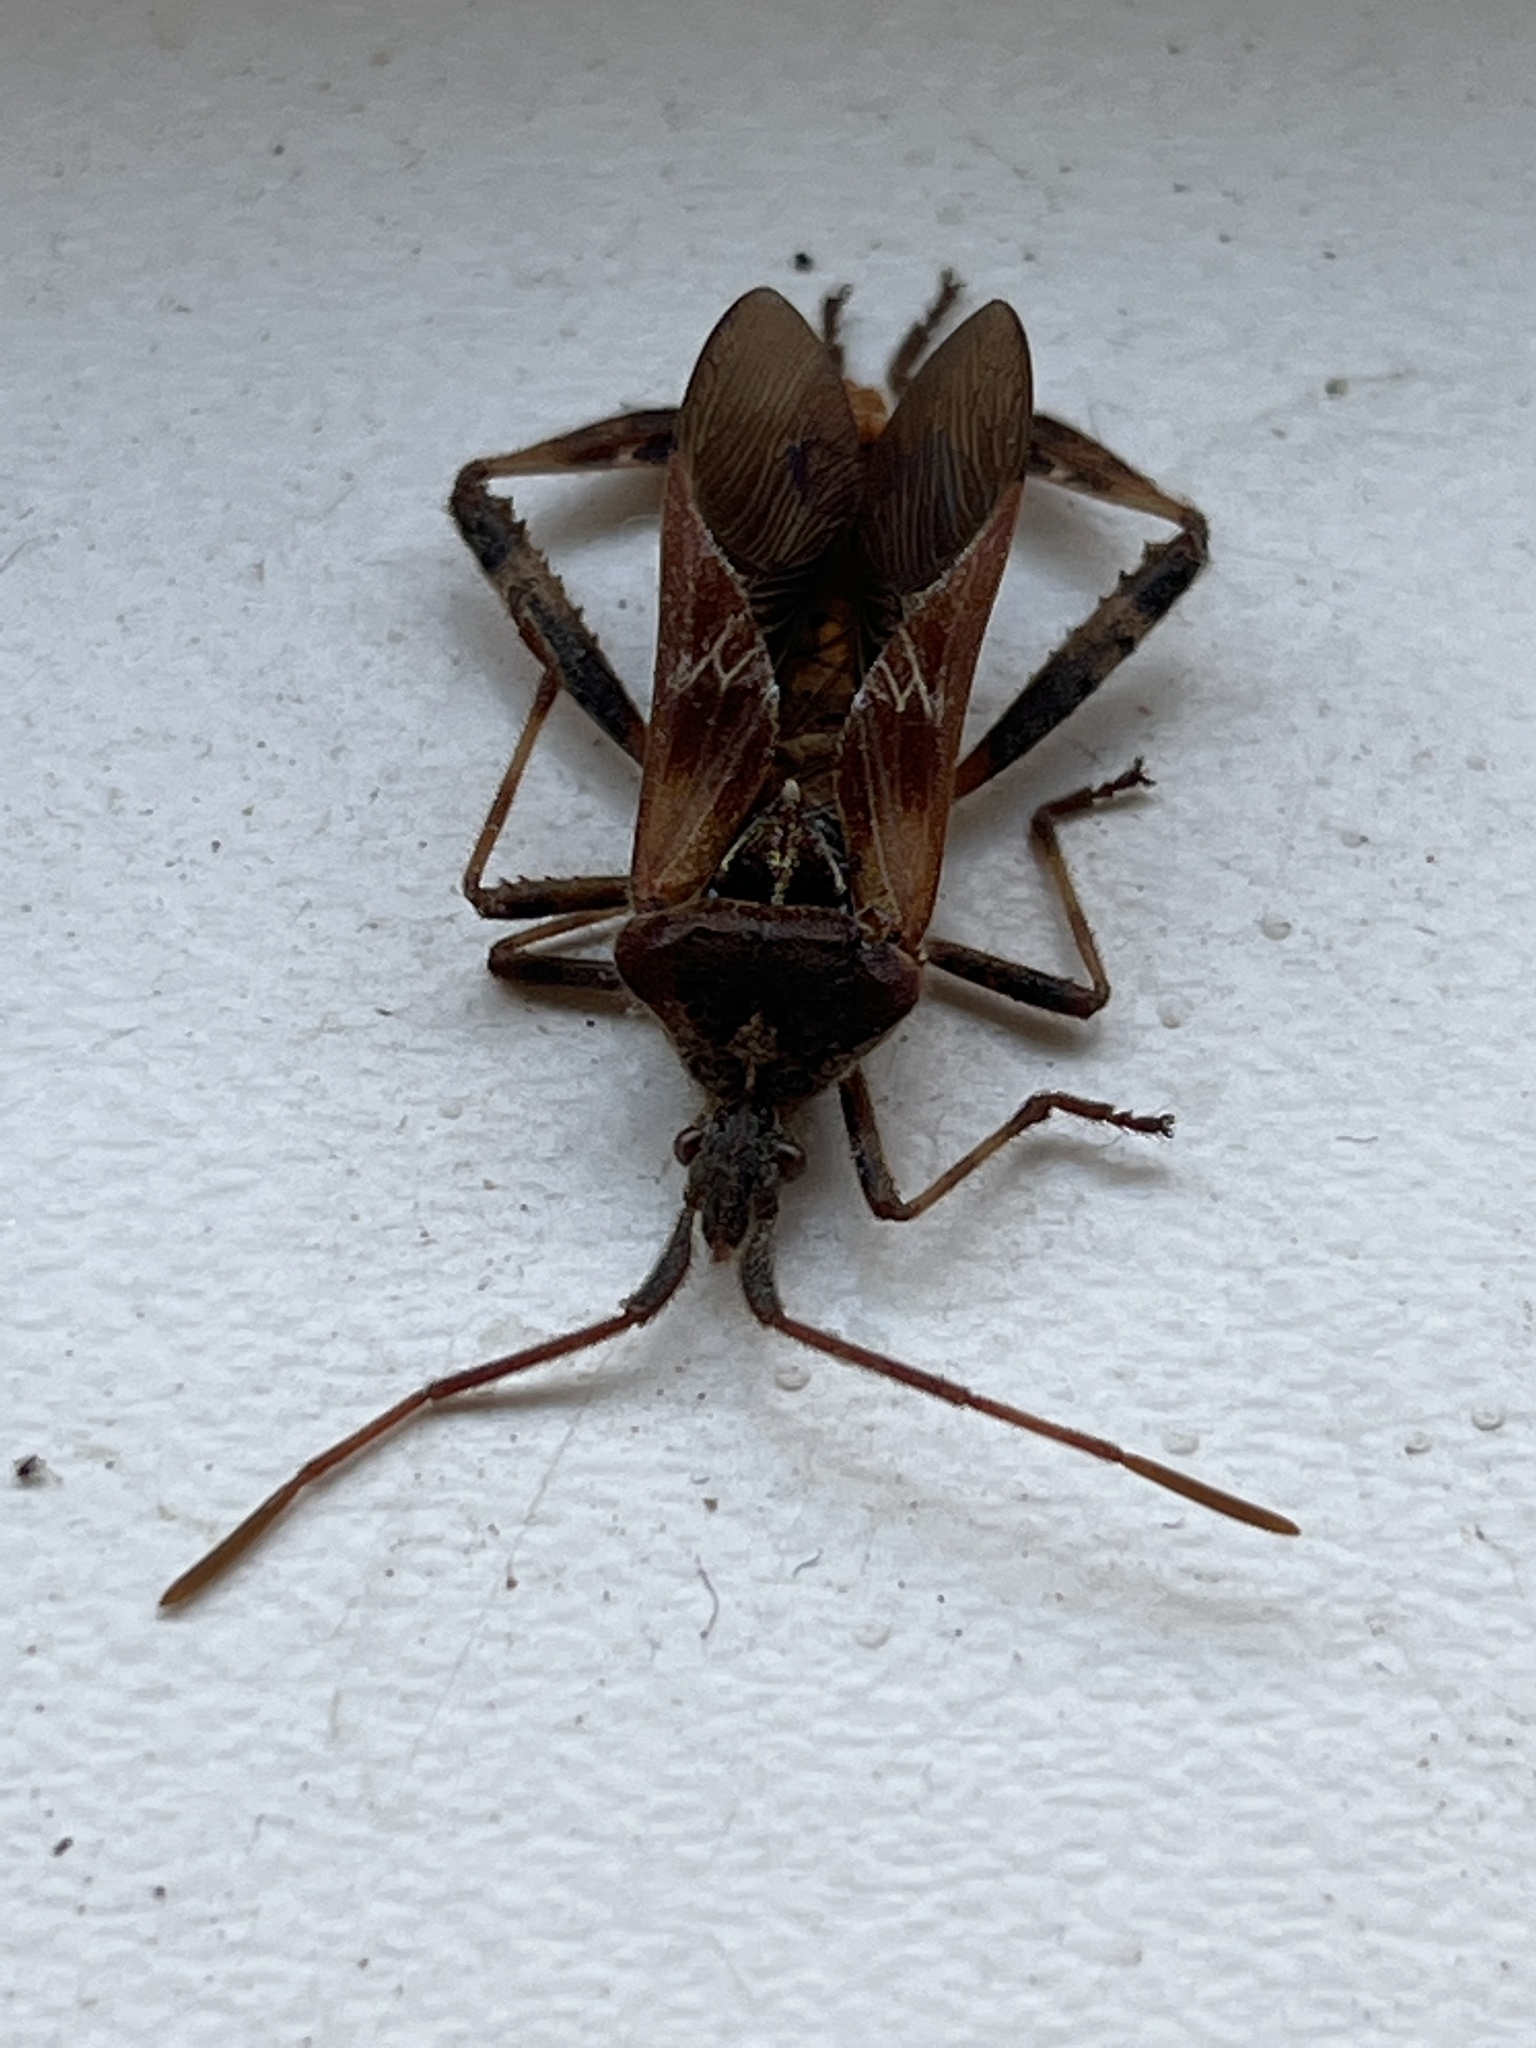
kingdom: Animalia
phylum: Arthropoda
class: Insecta
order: Hemiptera
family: Coreidae
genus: Leptoglossus
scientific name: Leptoglossus occidentalis
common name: Western conifer-seed bug
